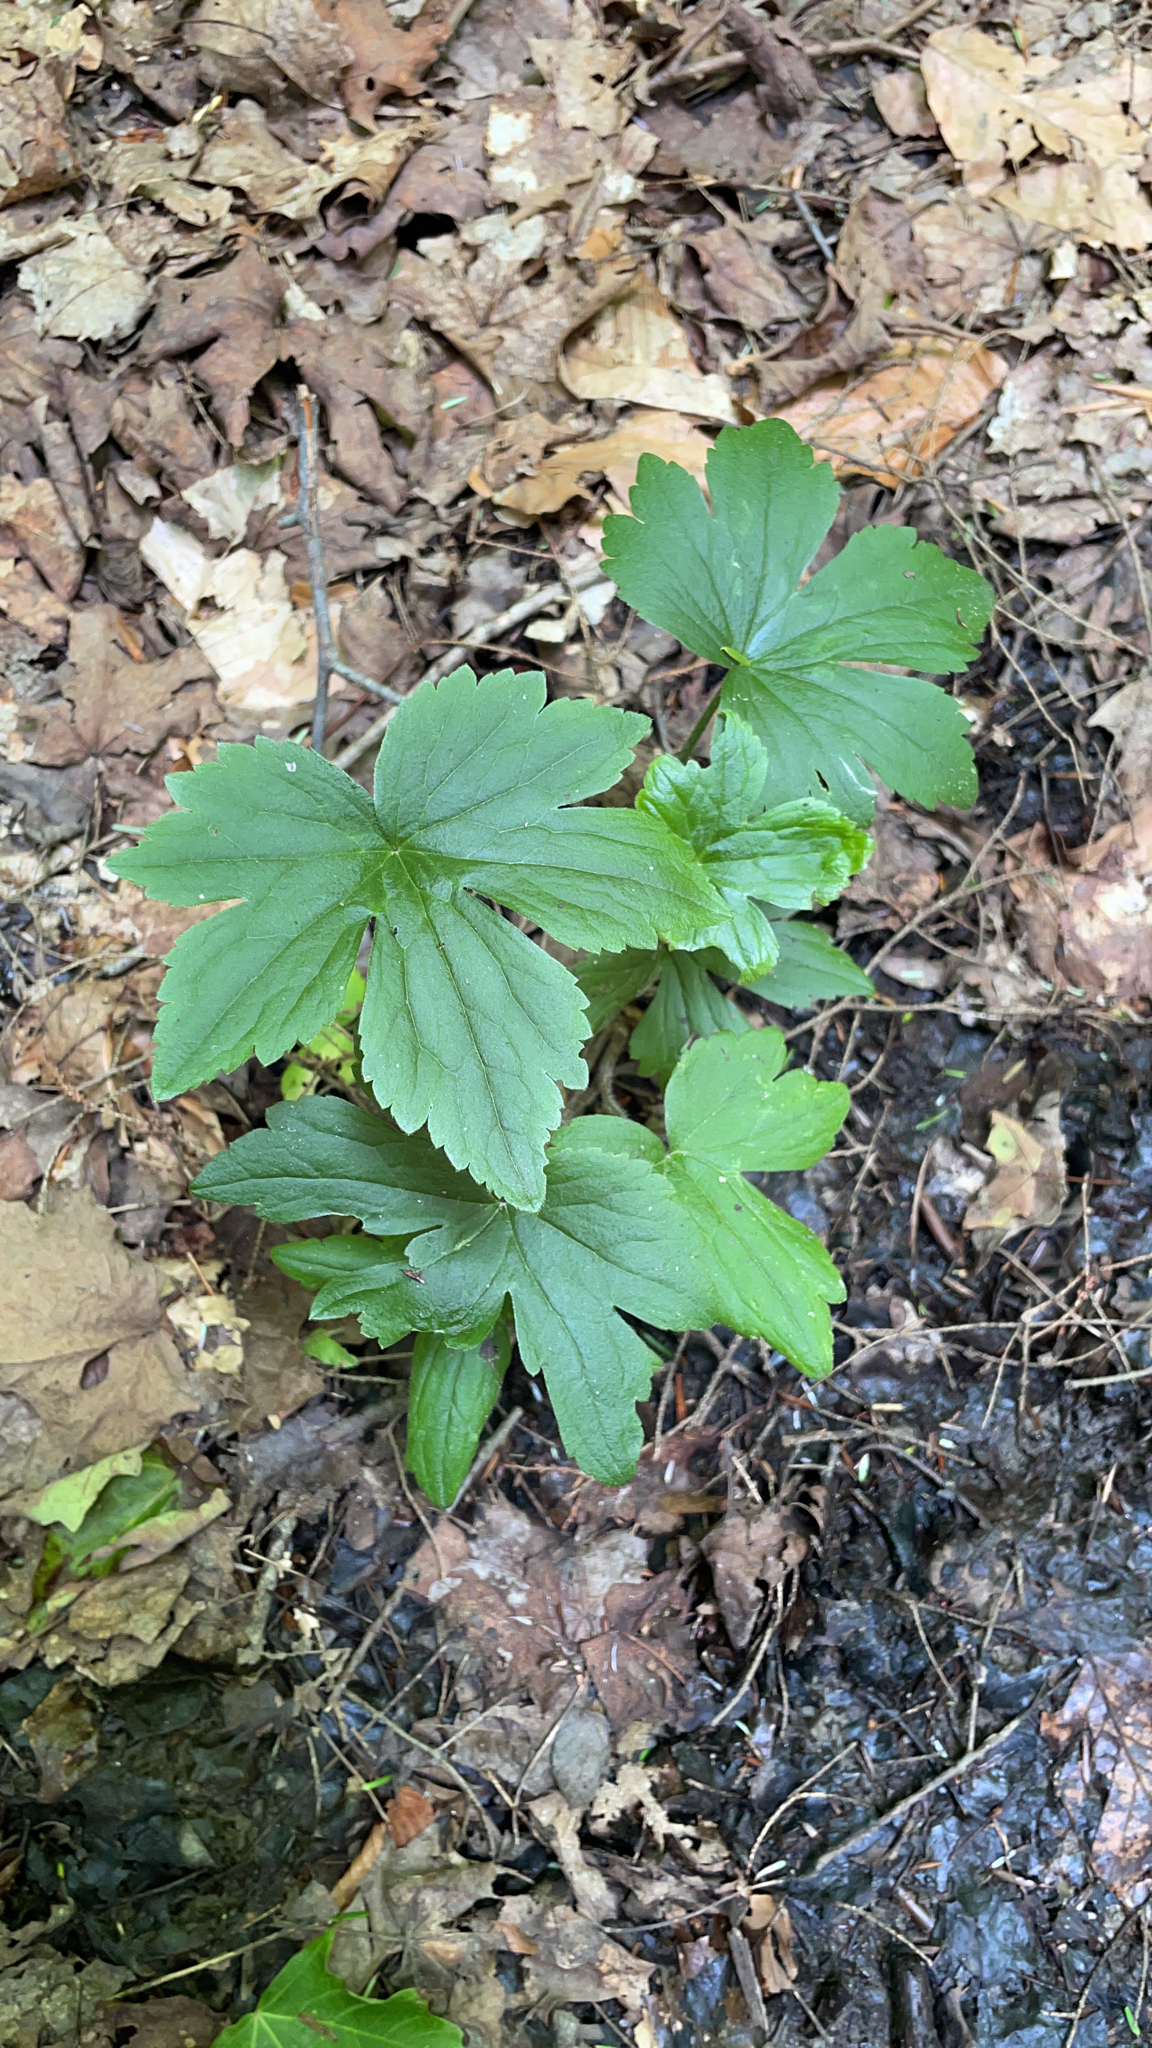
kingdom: Plantae
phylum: Tracheophyta
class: Magnoliopsida
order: Ranunculales
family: Ranunculaceae
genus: Ranunculus
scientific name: Ranunculus recurvatus
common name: Blisterwort
